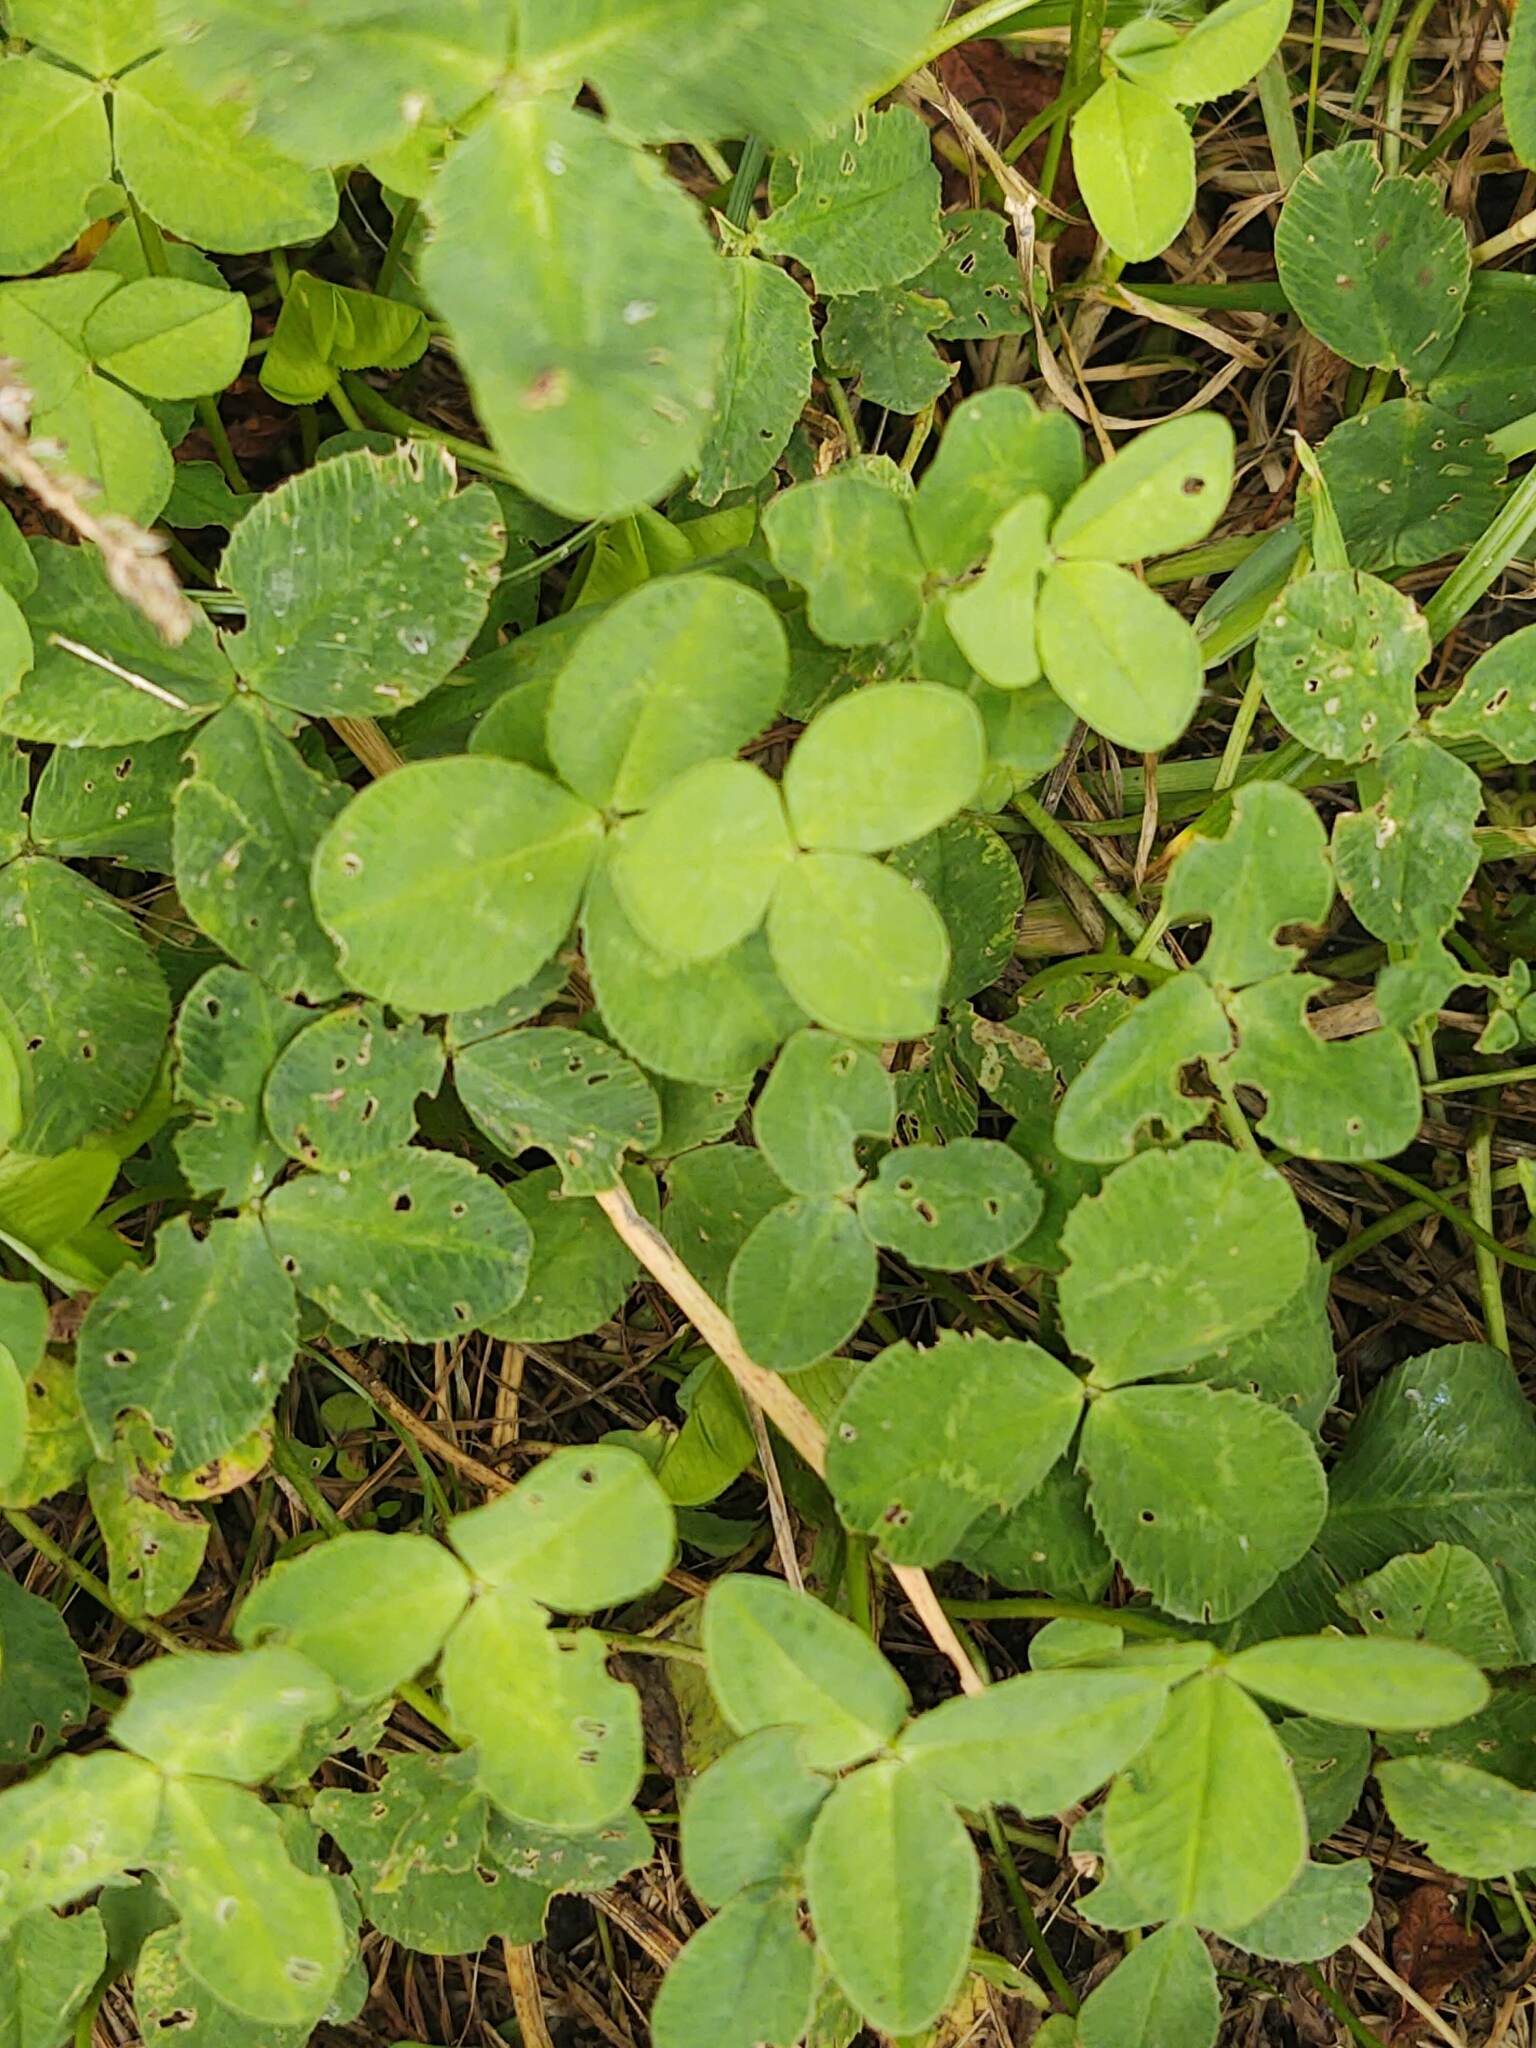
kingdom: Plantae
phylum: Tracheophyta
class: Magnoliopsida
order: Fabales
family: Fabaceae
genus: Trifolium
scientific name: Trifolium repens
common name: White clover
